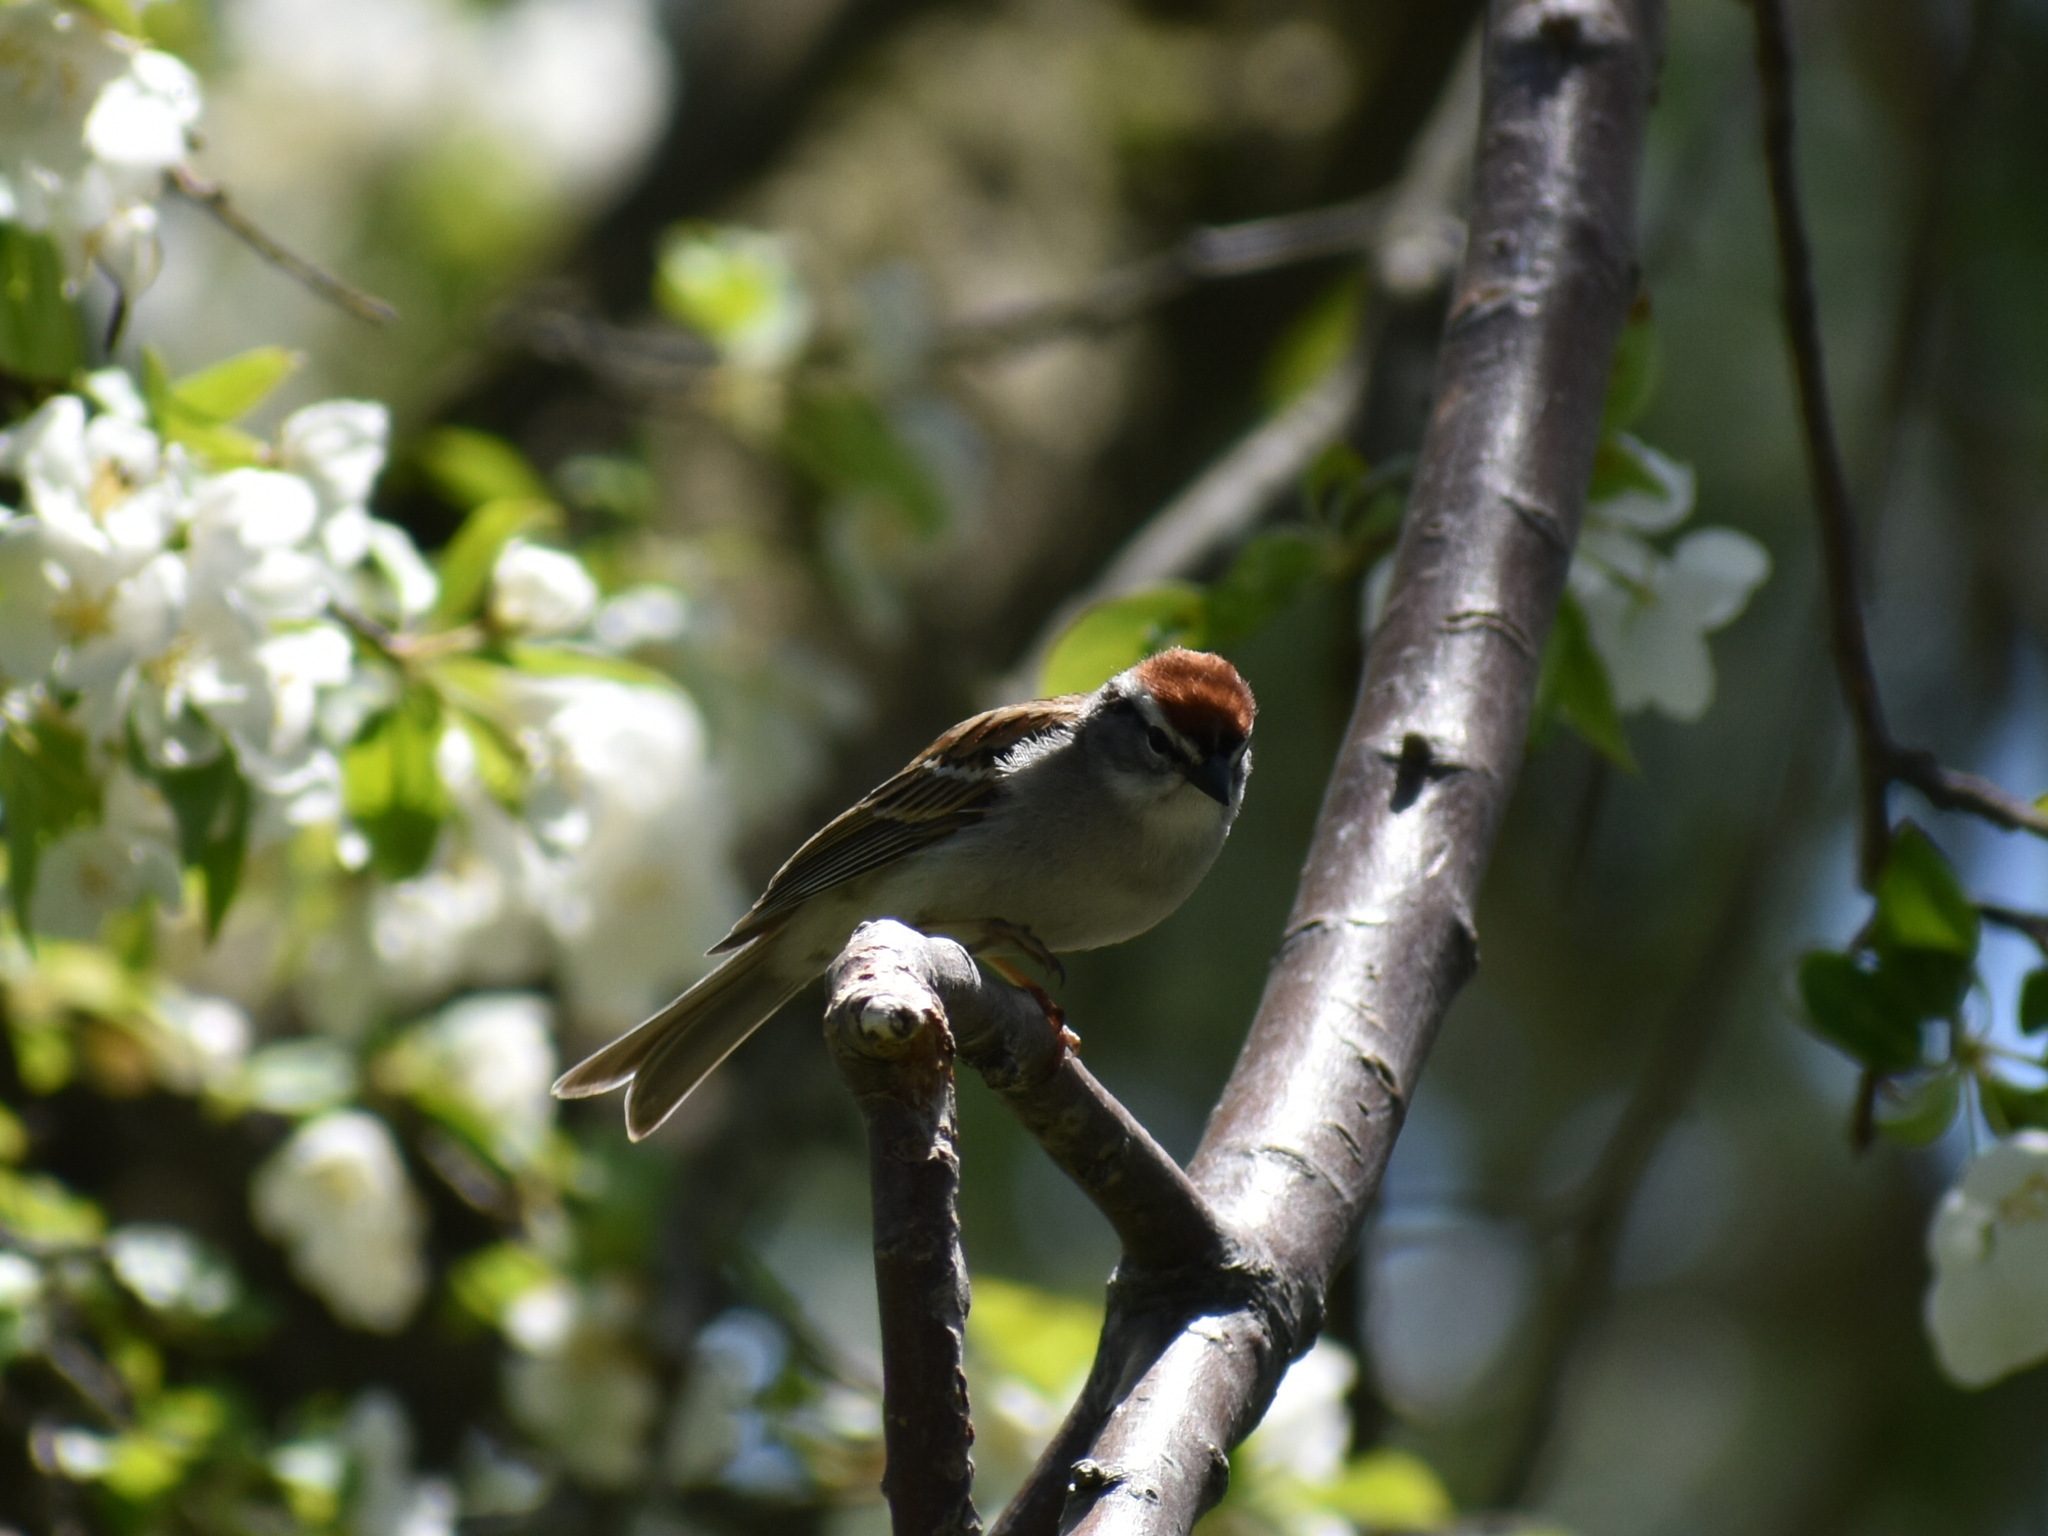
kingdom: Animalia
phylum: Chordata
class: Aves
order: Passeriformes
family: Passerellidae
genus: Spizella
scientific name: Spizella passerina
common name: Chipping sparrow
